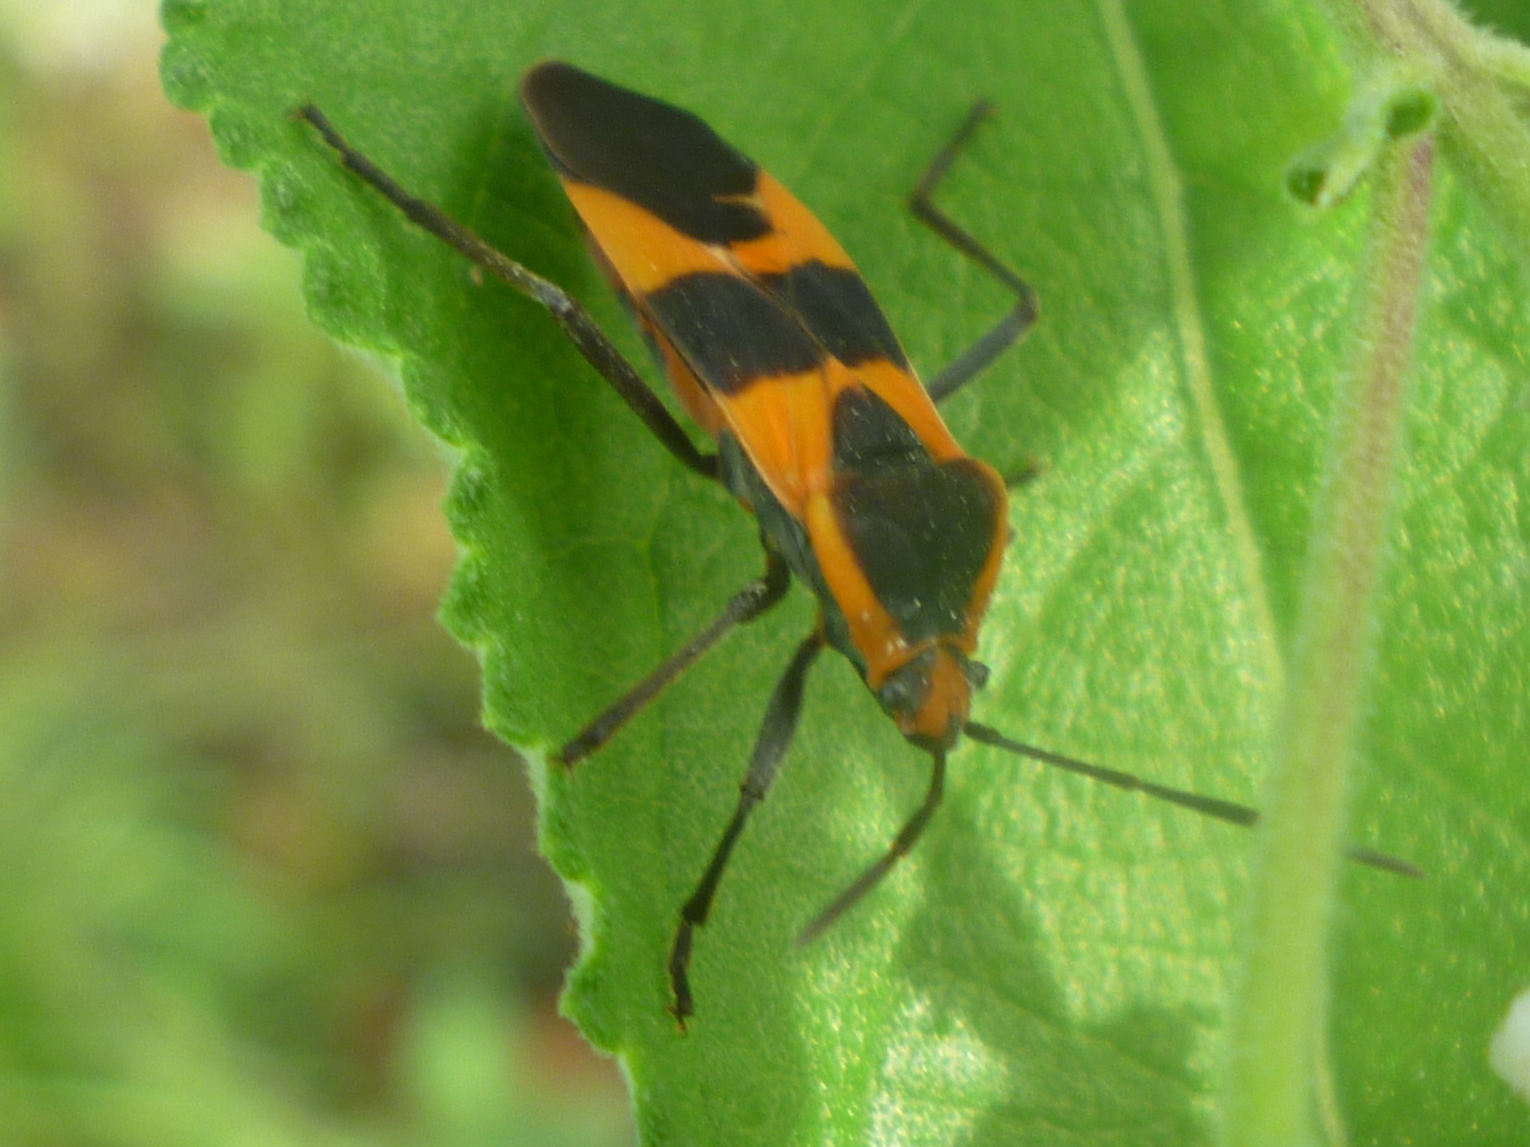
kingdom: Animalia
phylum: Arthropoda
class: Insecta
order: Hemiptera
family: Lygaeidae
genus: Oncopeltus
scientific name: Oncopeltus fasciatus
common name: Large milkweed bug
